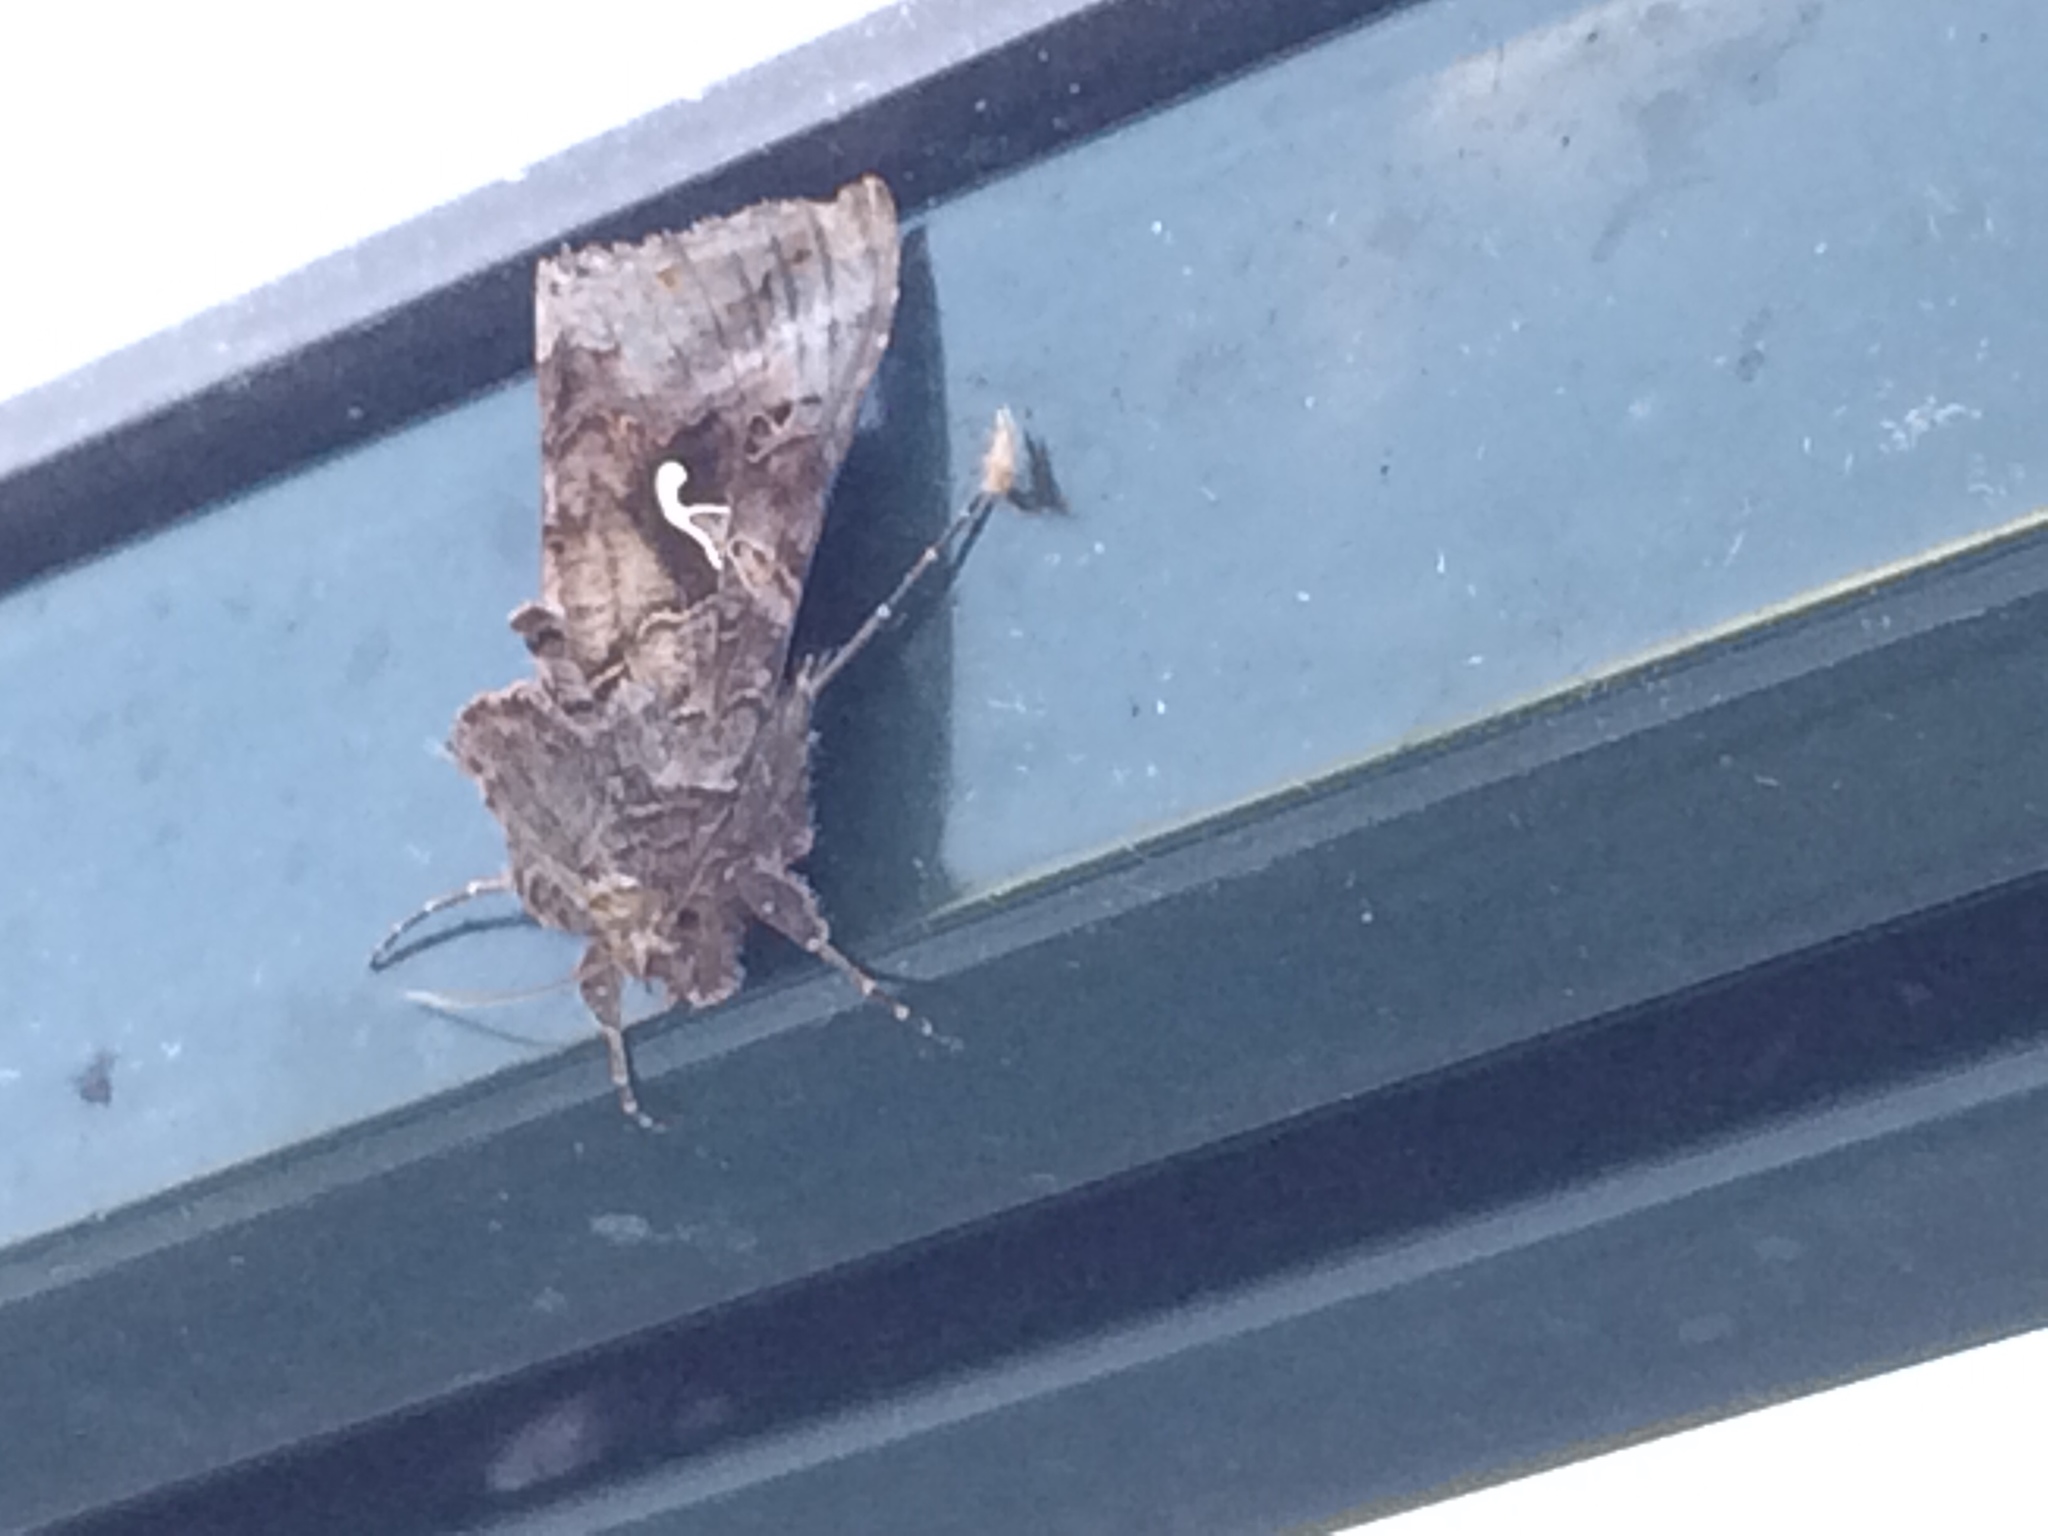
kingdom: Animalia
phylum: Arthropoda
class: Insecta
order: Lepidoptera
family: Noctuidae
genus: Autographa
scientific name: Autographa gamma
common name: Silver y
